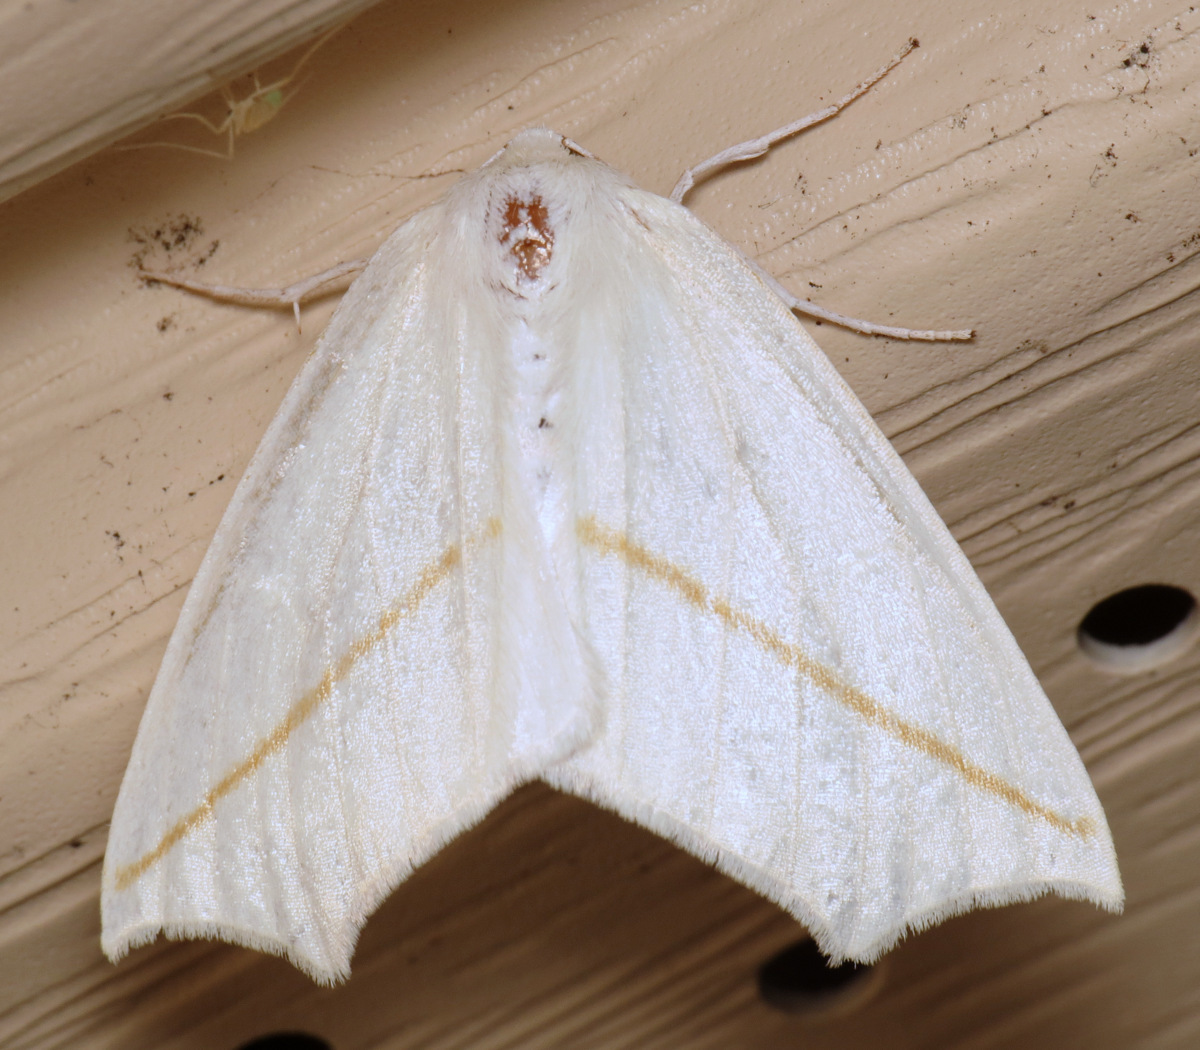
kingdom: Animalia
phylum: Arthropoda
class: Insecta
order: Lepidoptera
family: Geometridae
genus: Tetracis
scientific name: Tetracis cachexiata
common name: White slant-line
